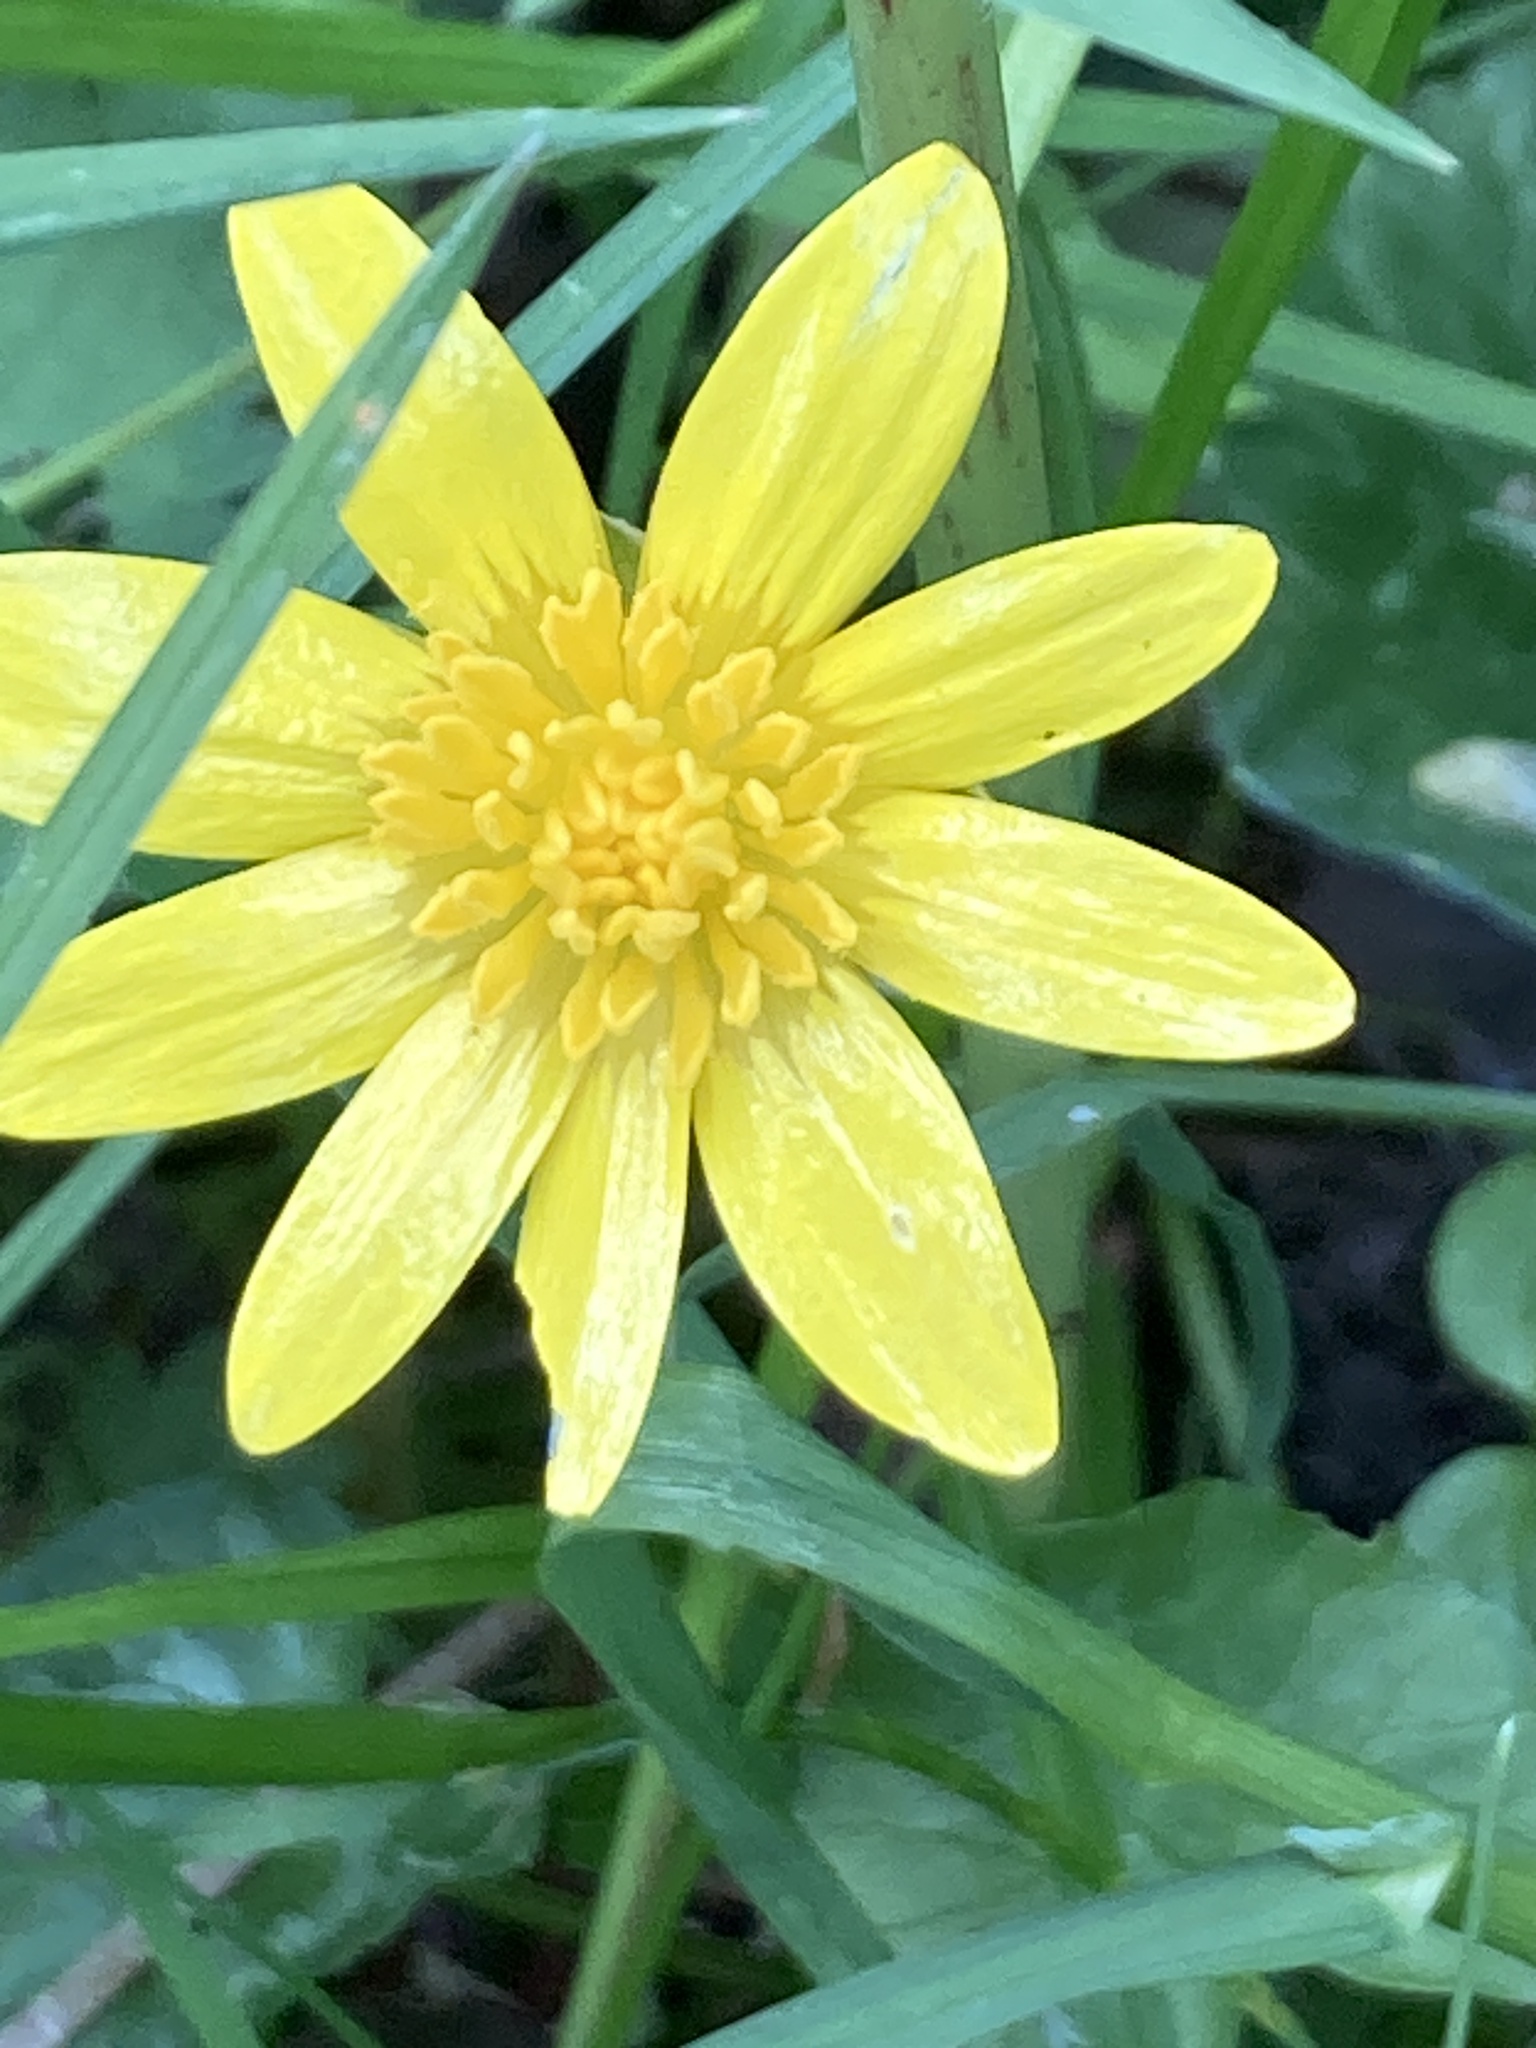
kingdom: Plantae
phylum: Tracheophyta
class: Magnoliopsida
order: Ranunculales
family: Ranunculaceae
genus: Ficaria
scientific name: Ficaria verna
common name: Lesser celandine
